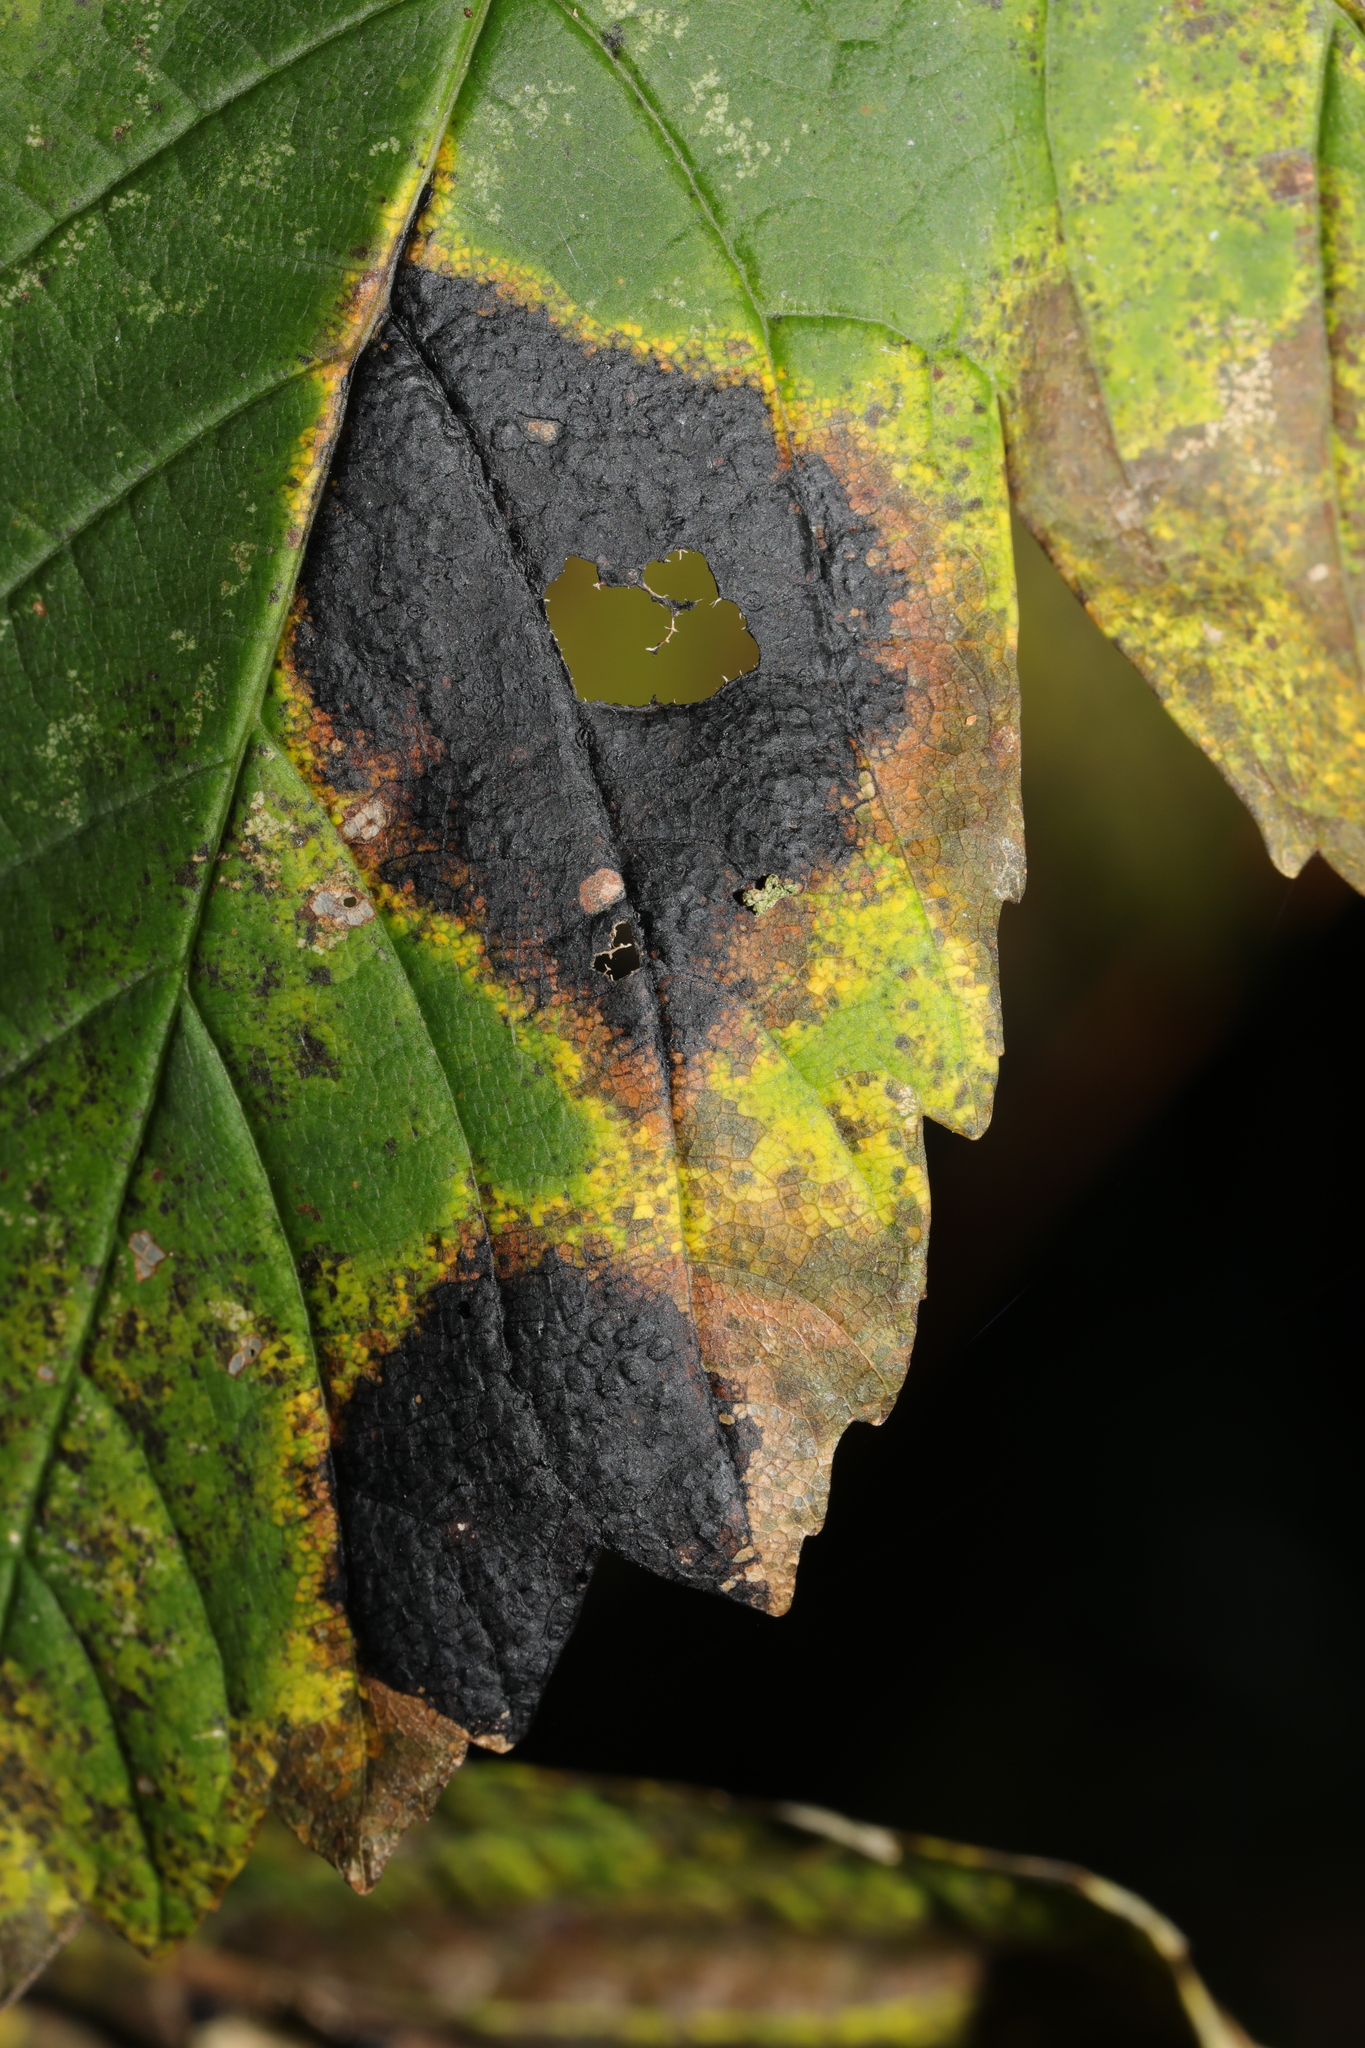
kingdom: Fungi
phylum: Ascomycota
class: Leotiomycetes
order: Rhytismatales
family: Rhytismataceae
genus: Rhytisma
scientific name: Rhytisma acerinum
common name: European tar spot
